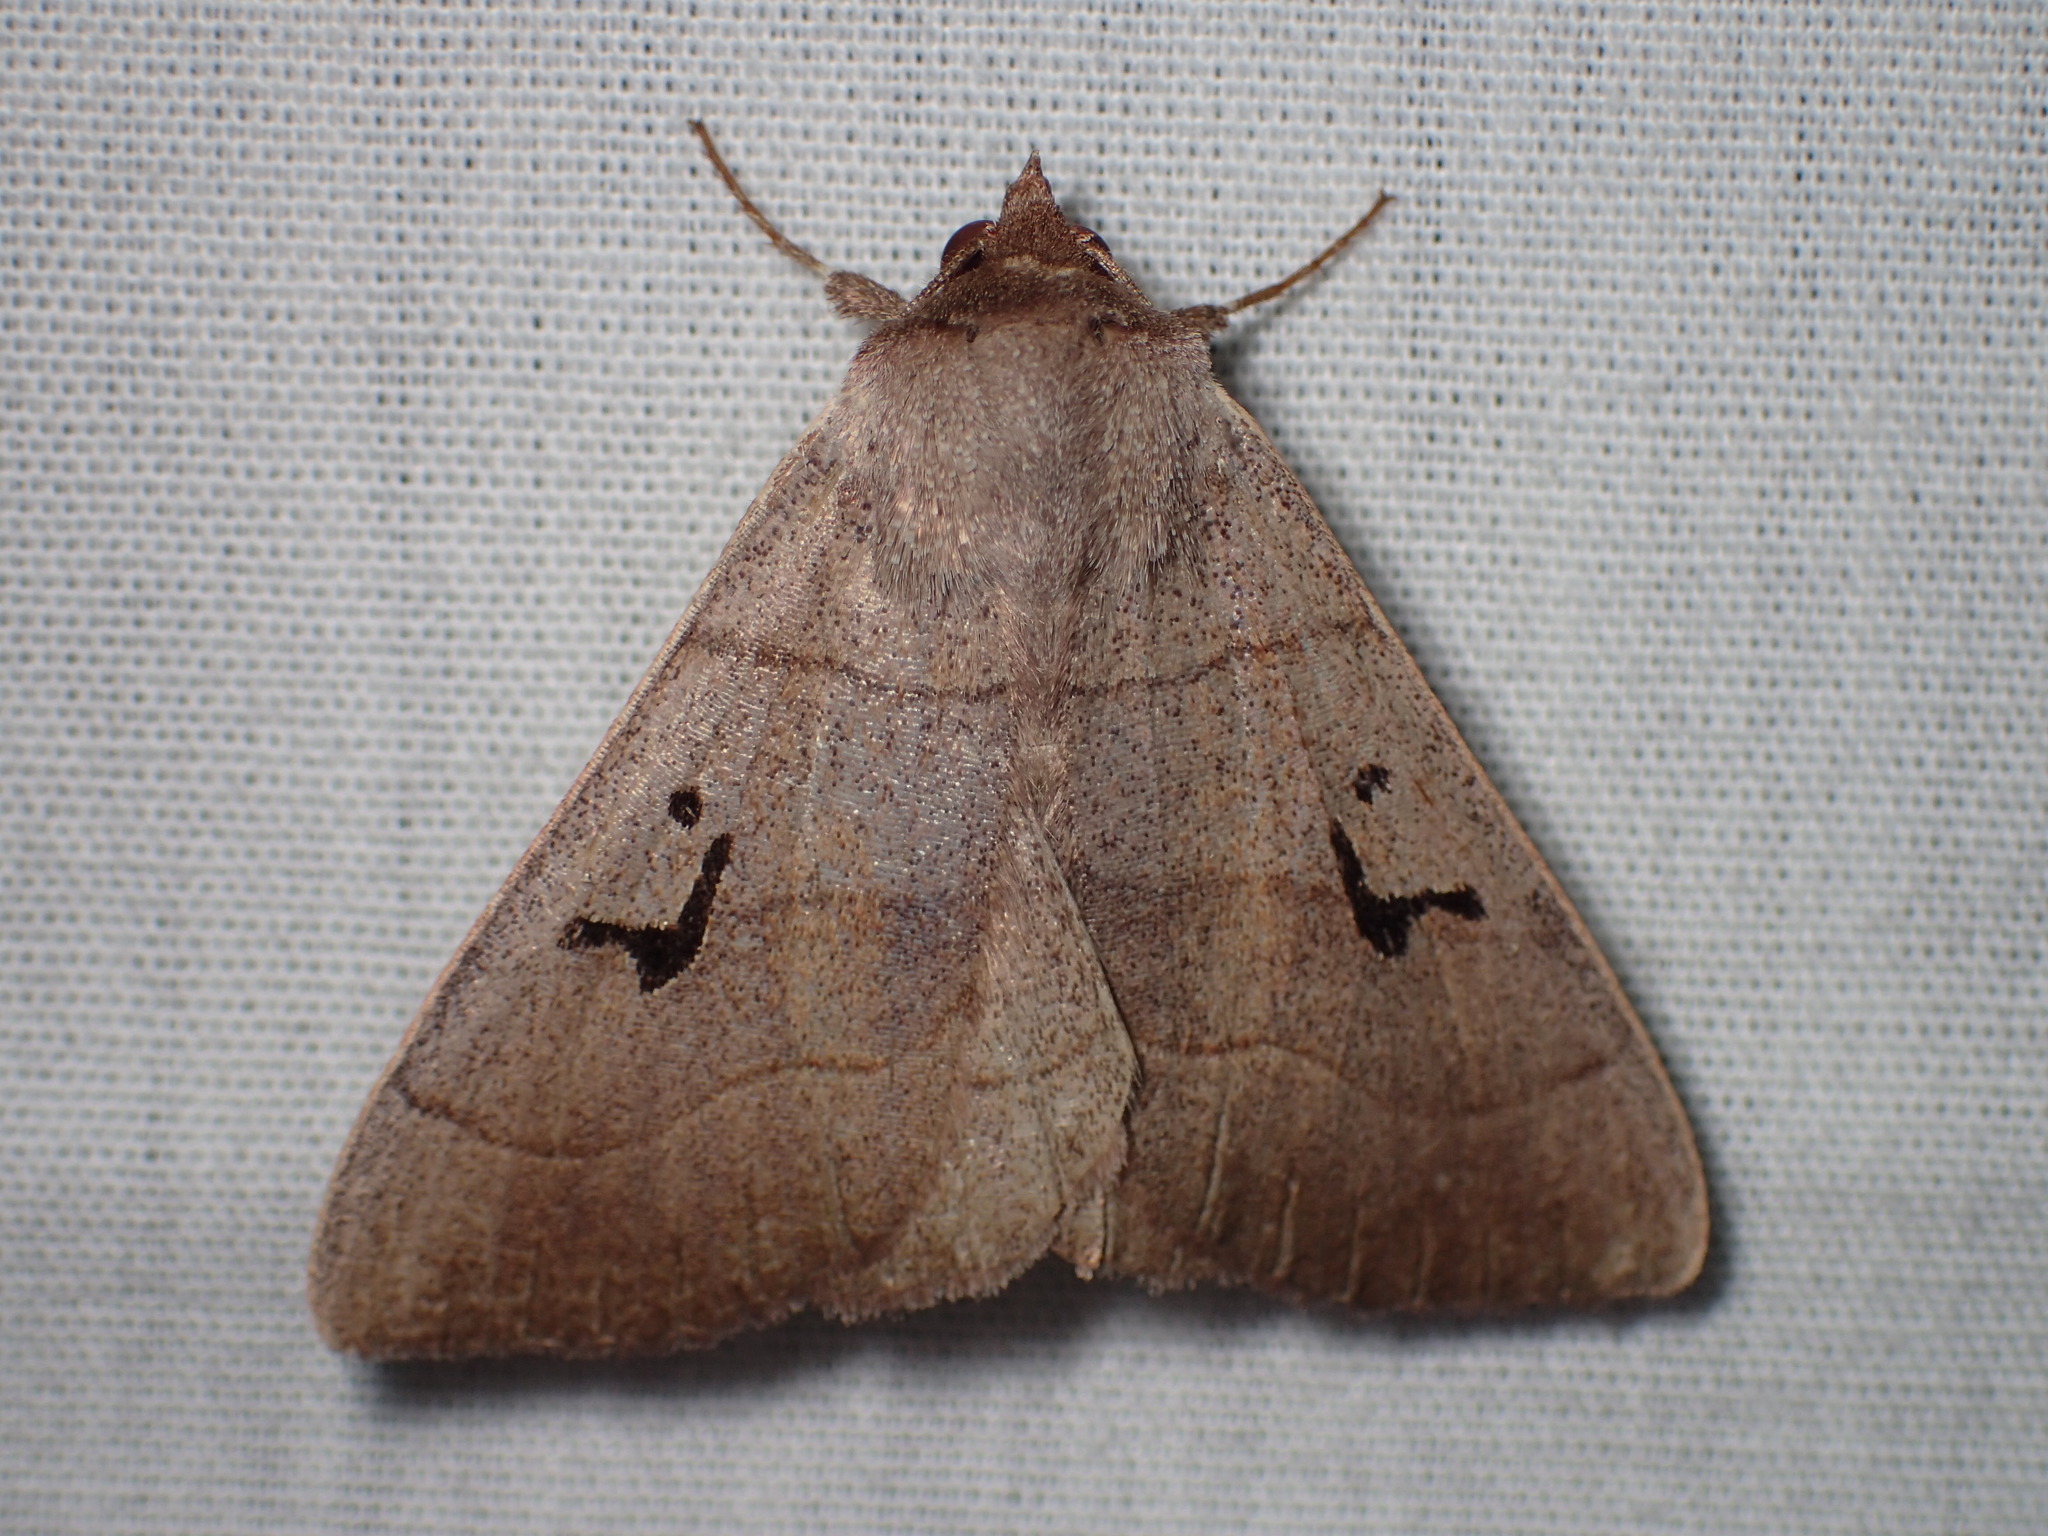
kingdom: Animalia
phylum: Arthropoda
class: Insecta
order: Lepidoptera
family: Erebidae
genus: Panopoda
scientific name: Panopoda carneicosta
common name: Brown panopoda moth
